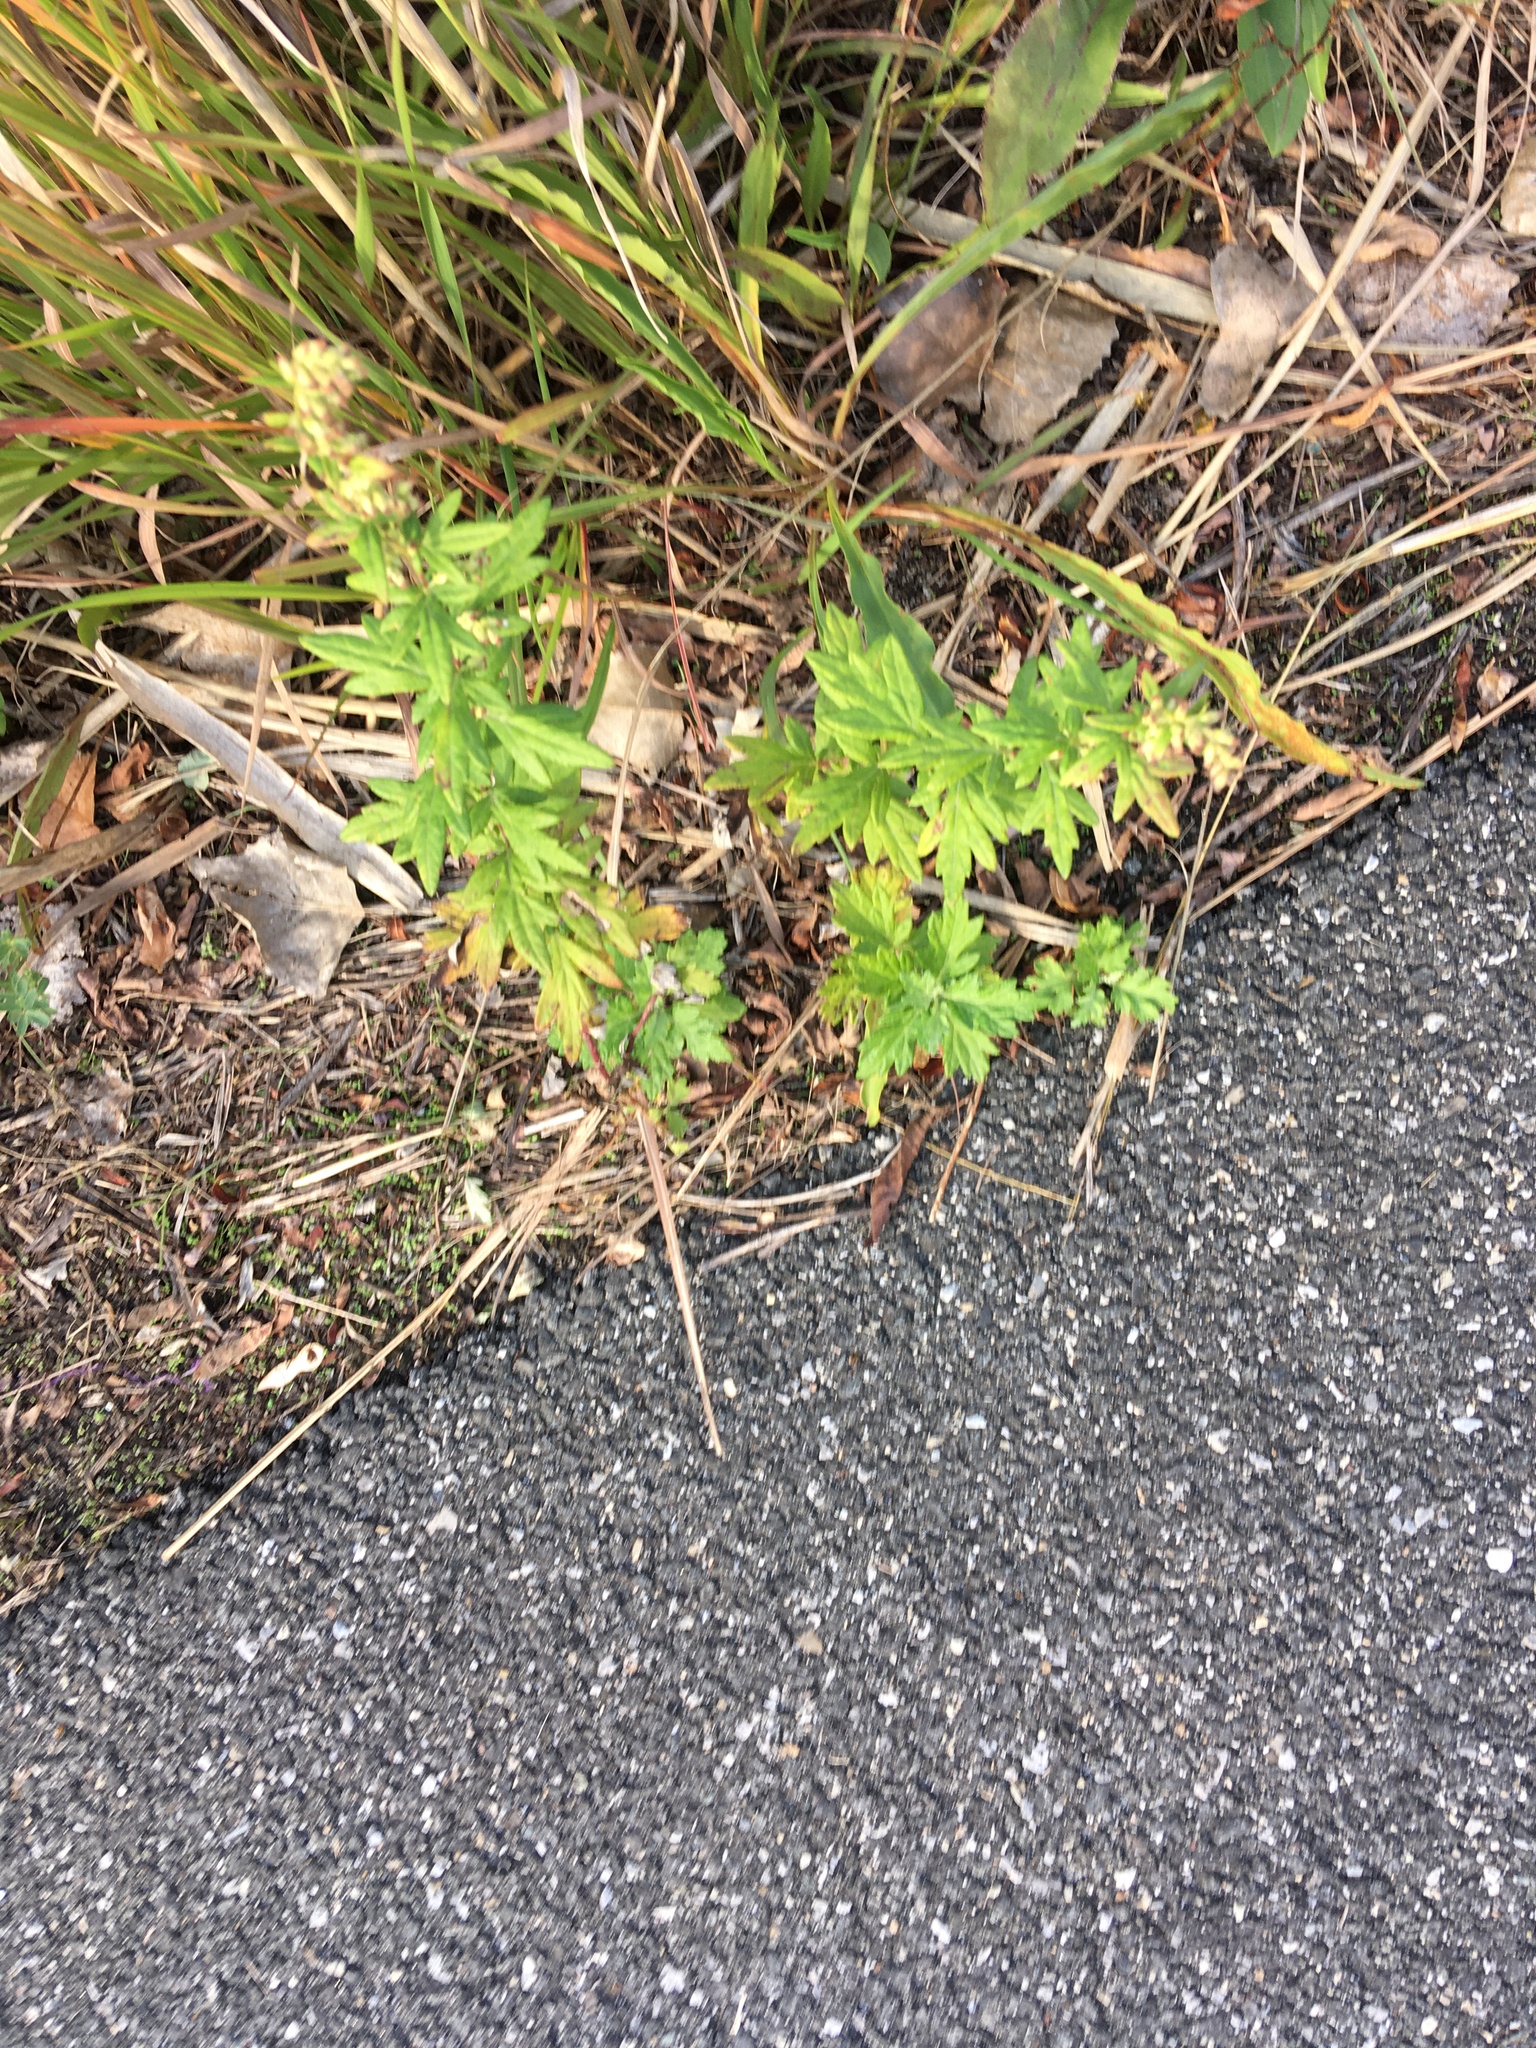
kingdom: Plantae
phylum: Tracheophyta
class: Magnoliopsida
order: Asterales
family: Asteraceae
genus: Artemisia
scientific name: Artemisia vulgaris
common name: Mugwort
